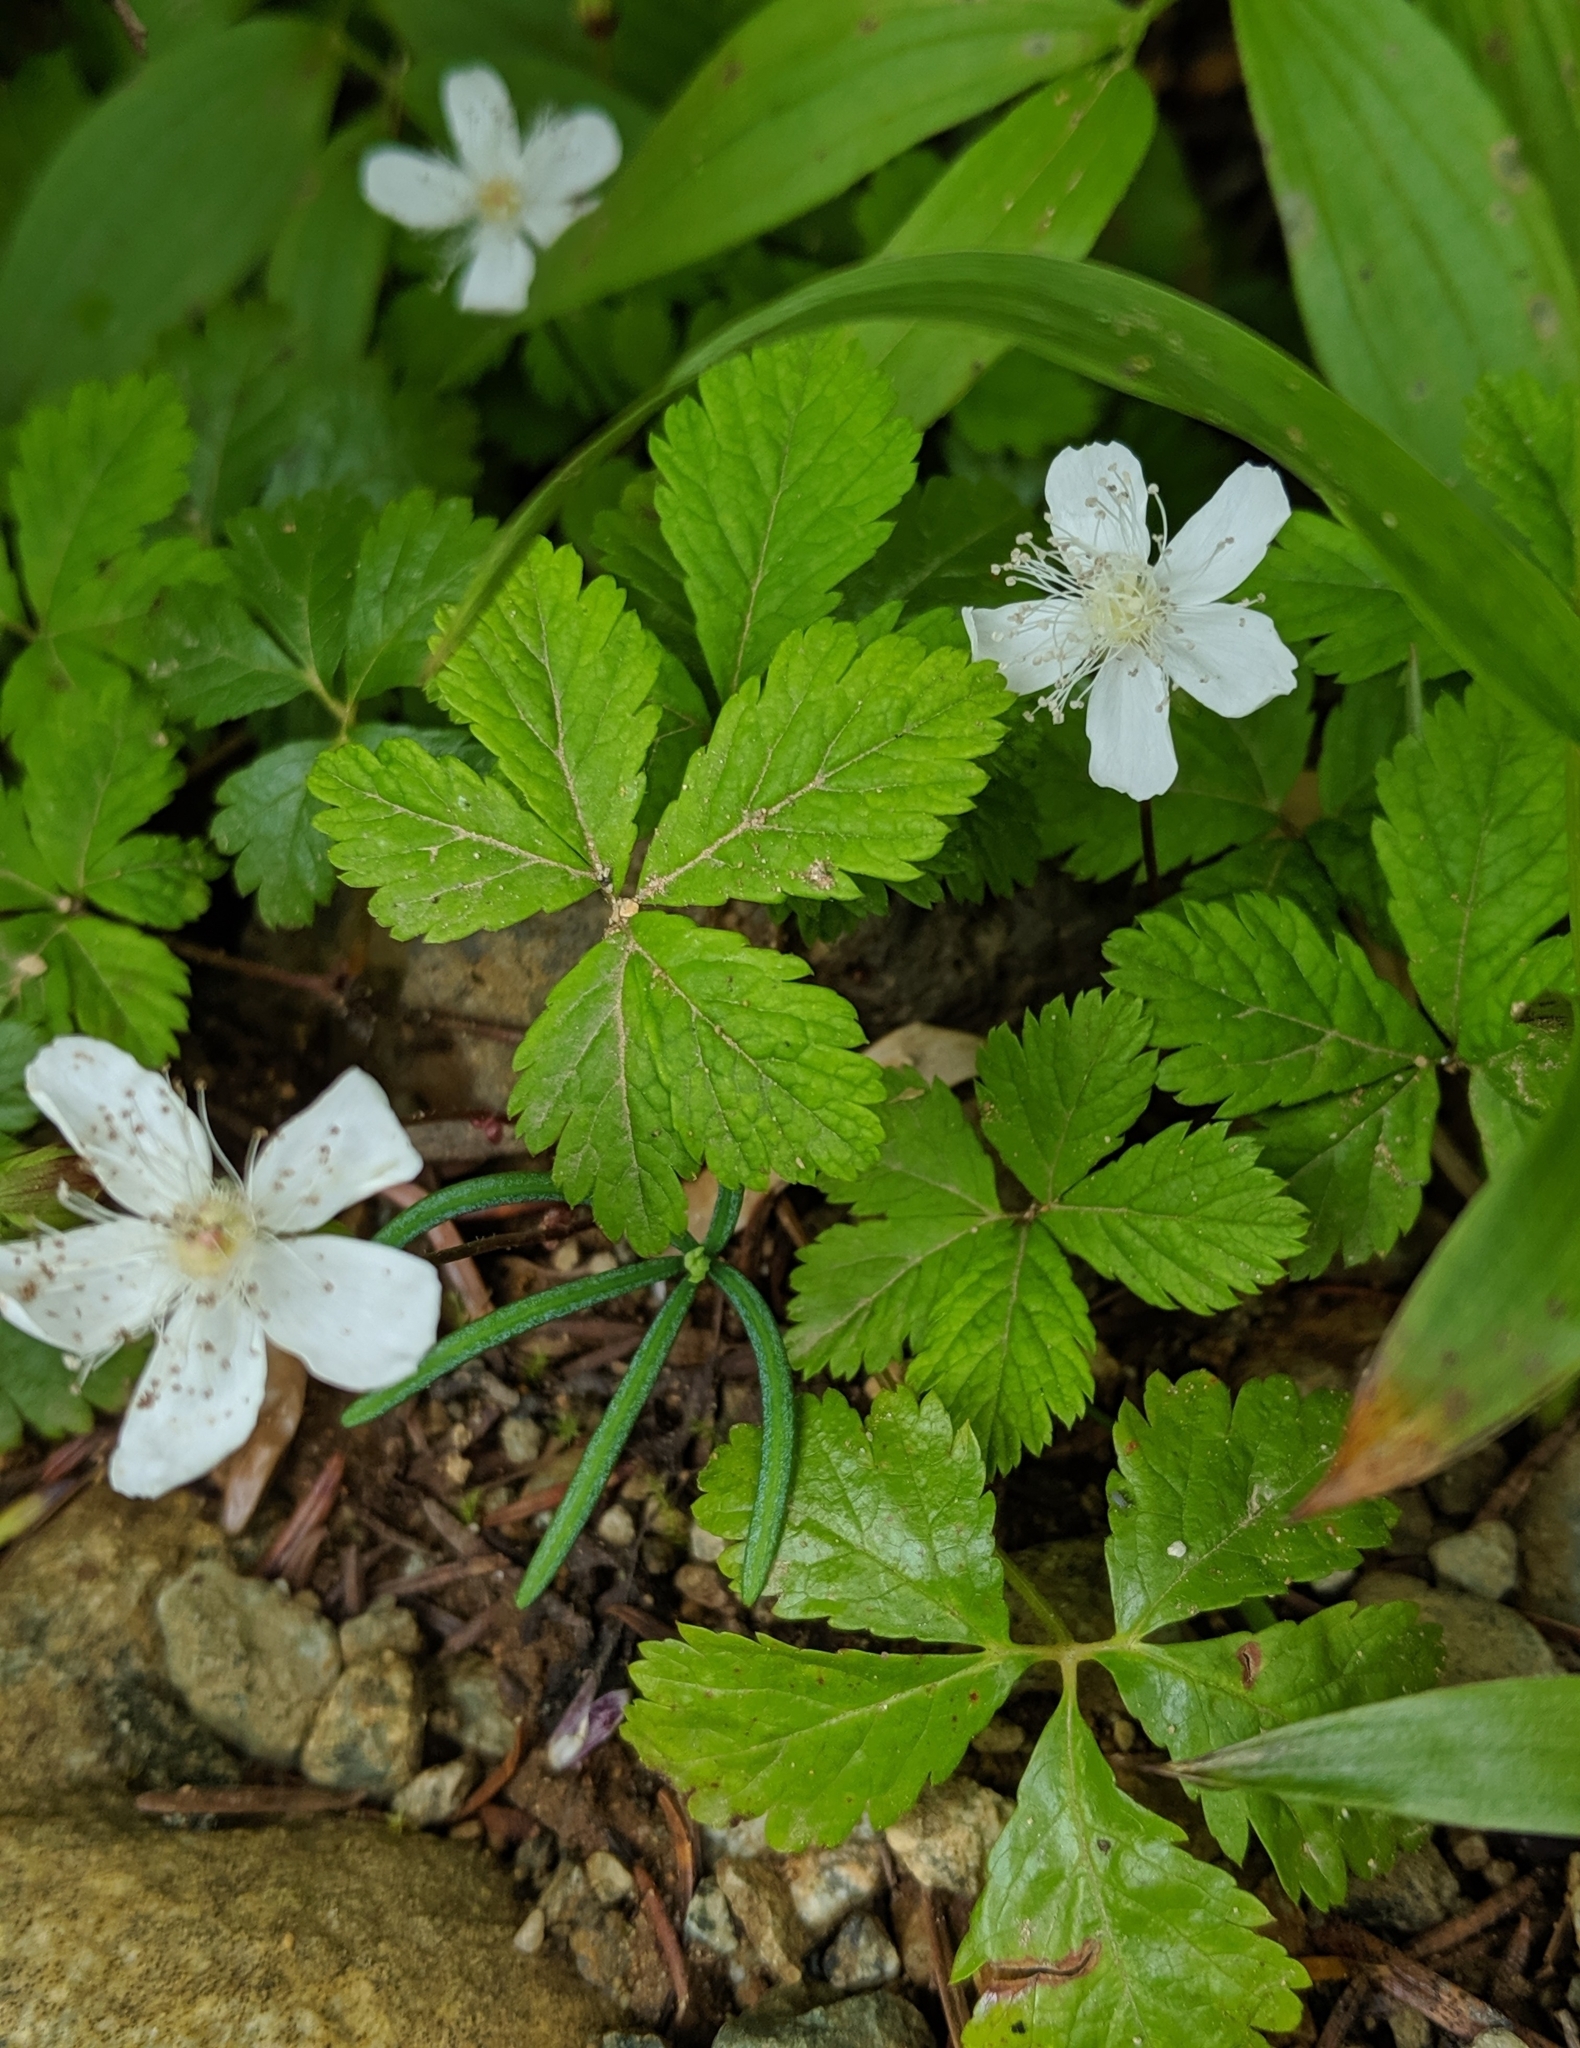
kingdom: Plantae
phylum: Tracheophyta
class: Magnoliopsida
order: Rosales
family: Rosaceae
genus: Rubus
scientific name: Rubus pedatus
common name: Creeping raspberry
